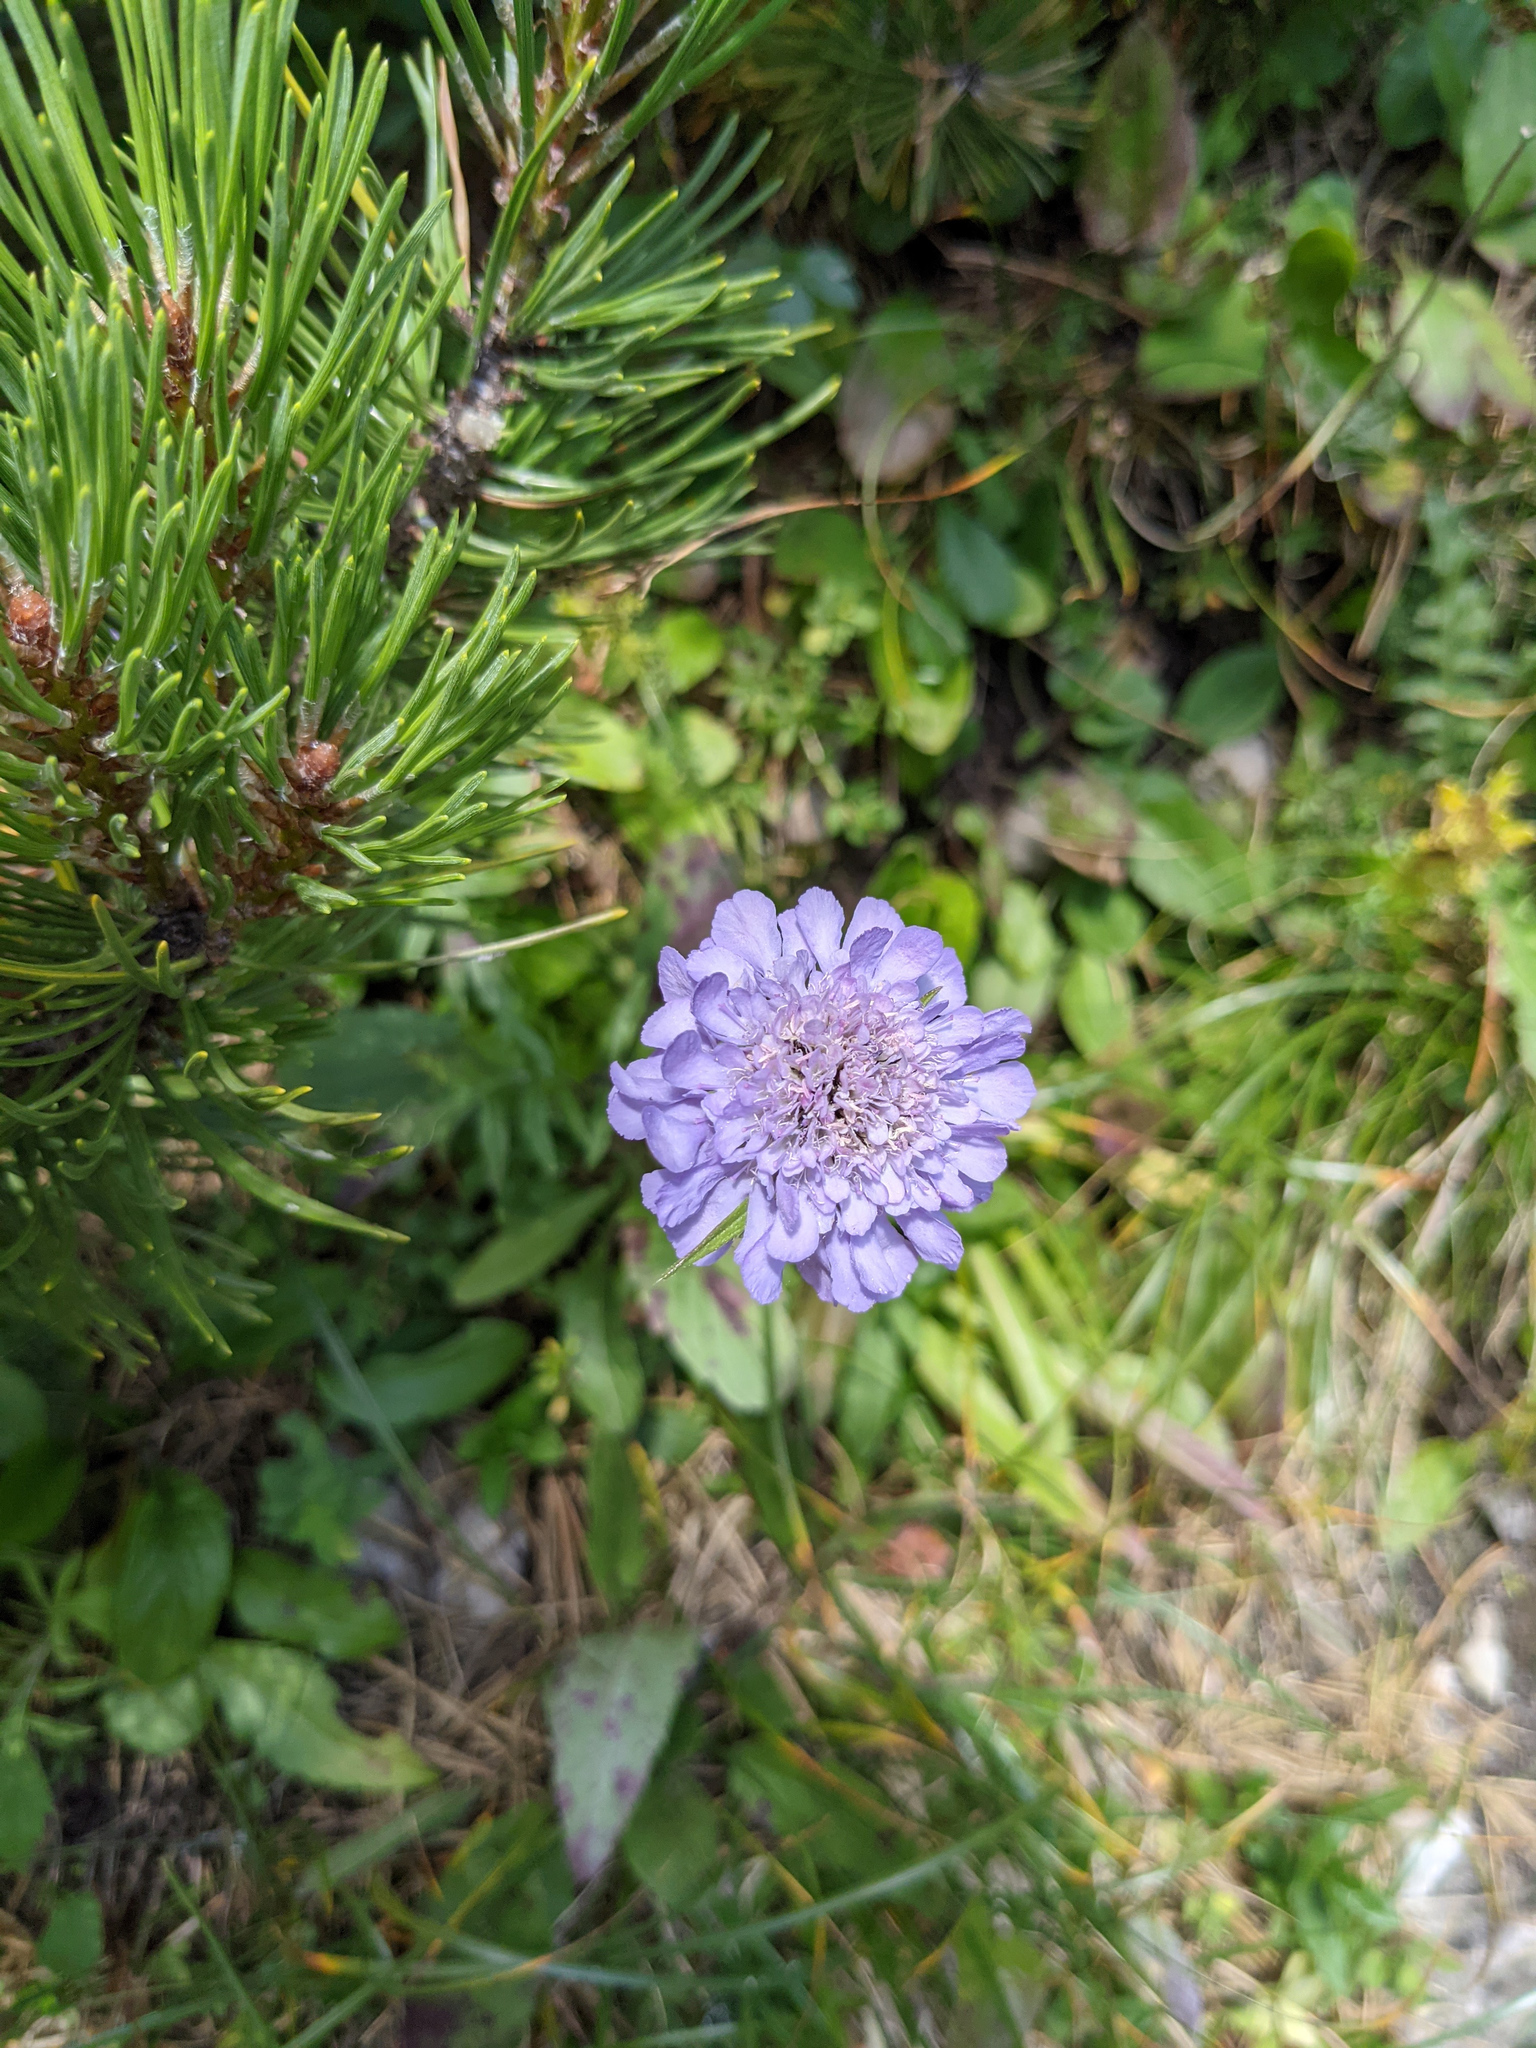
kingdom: Plantae
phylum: Tracheophyta
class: Magnoliopsida
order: Dipsacales
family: Caprifoliaceae
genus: Scabiosa
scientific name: Scabiosa lucida
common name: Shining scabious
